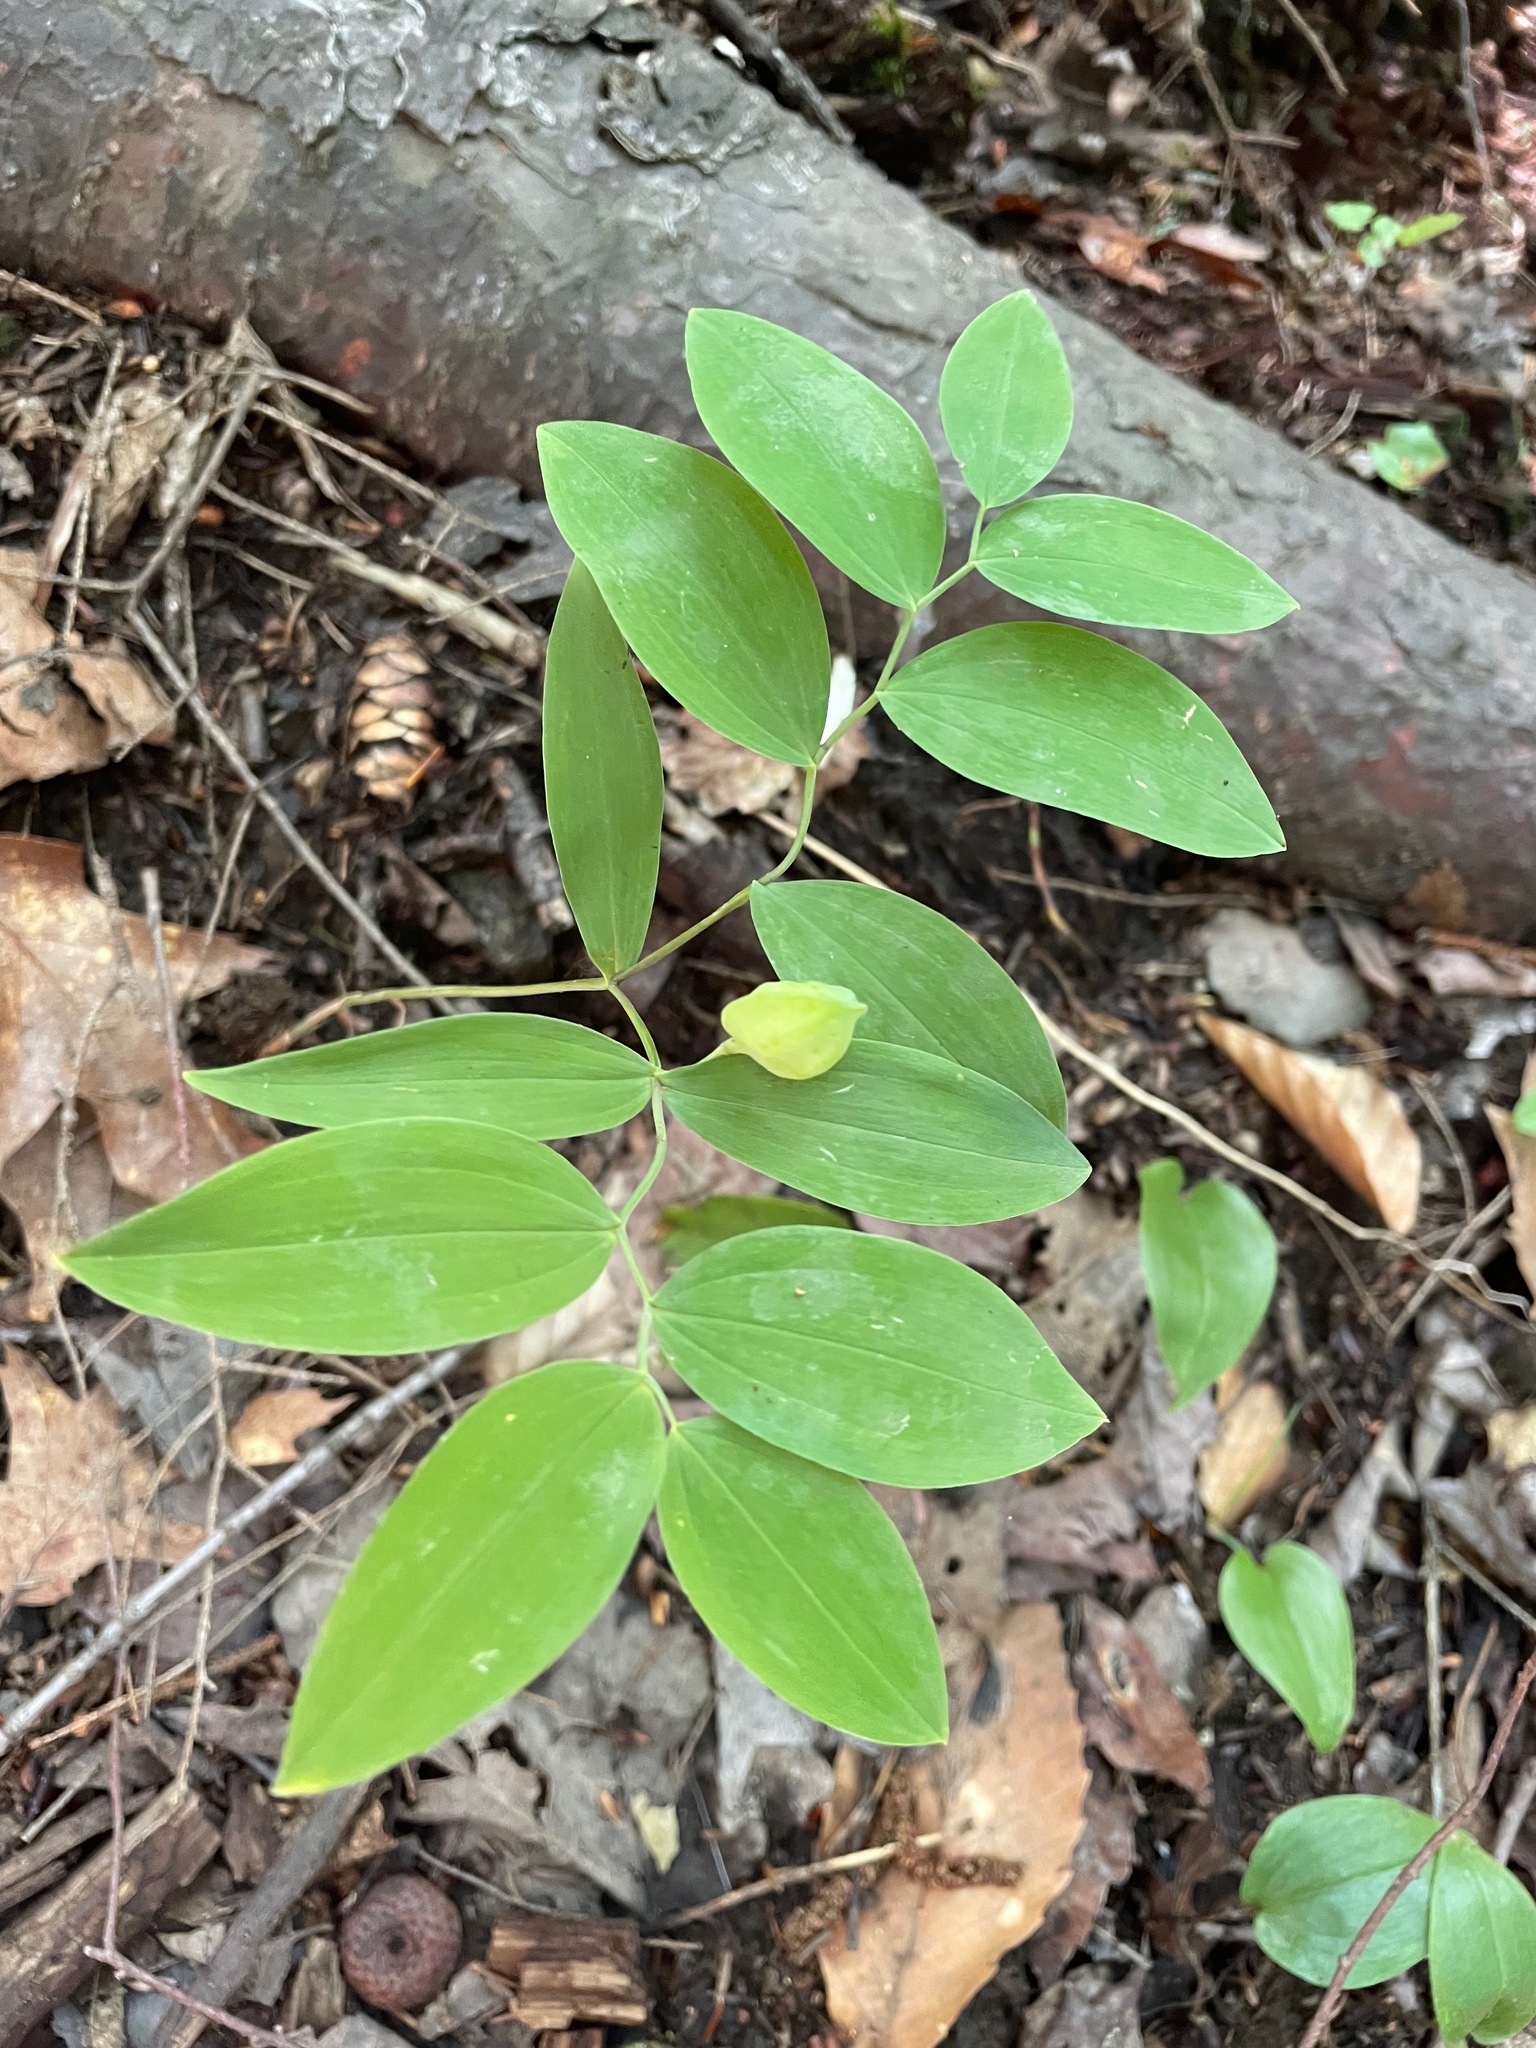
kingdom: Plantae
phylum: Tracheophyta
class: Liliopsida
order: Liliales
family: Colchicaceae
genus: Uvularia
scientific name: Uvularia sessilifolia
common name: Straw-lily
